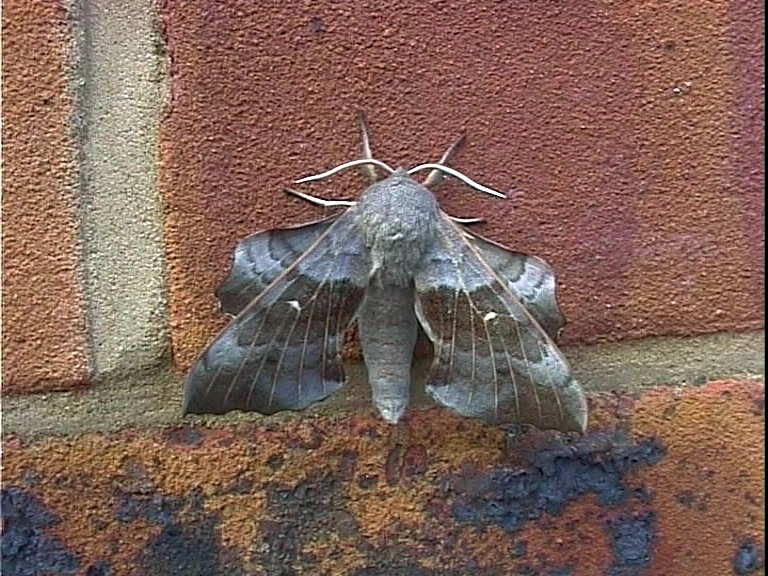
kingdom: Animalia
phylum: Arthropoda
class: Insecta
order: Lepidoptera
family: Sphingidae
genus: Laothoe
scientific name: Laothoe populi
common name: Poplar hawk-moth
